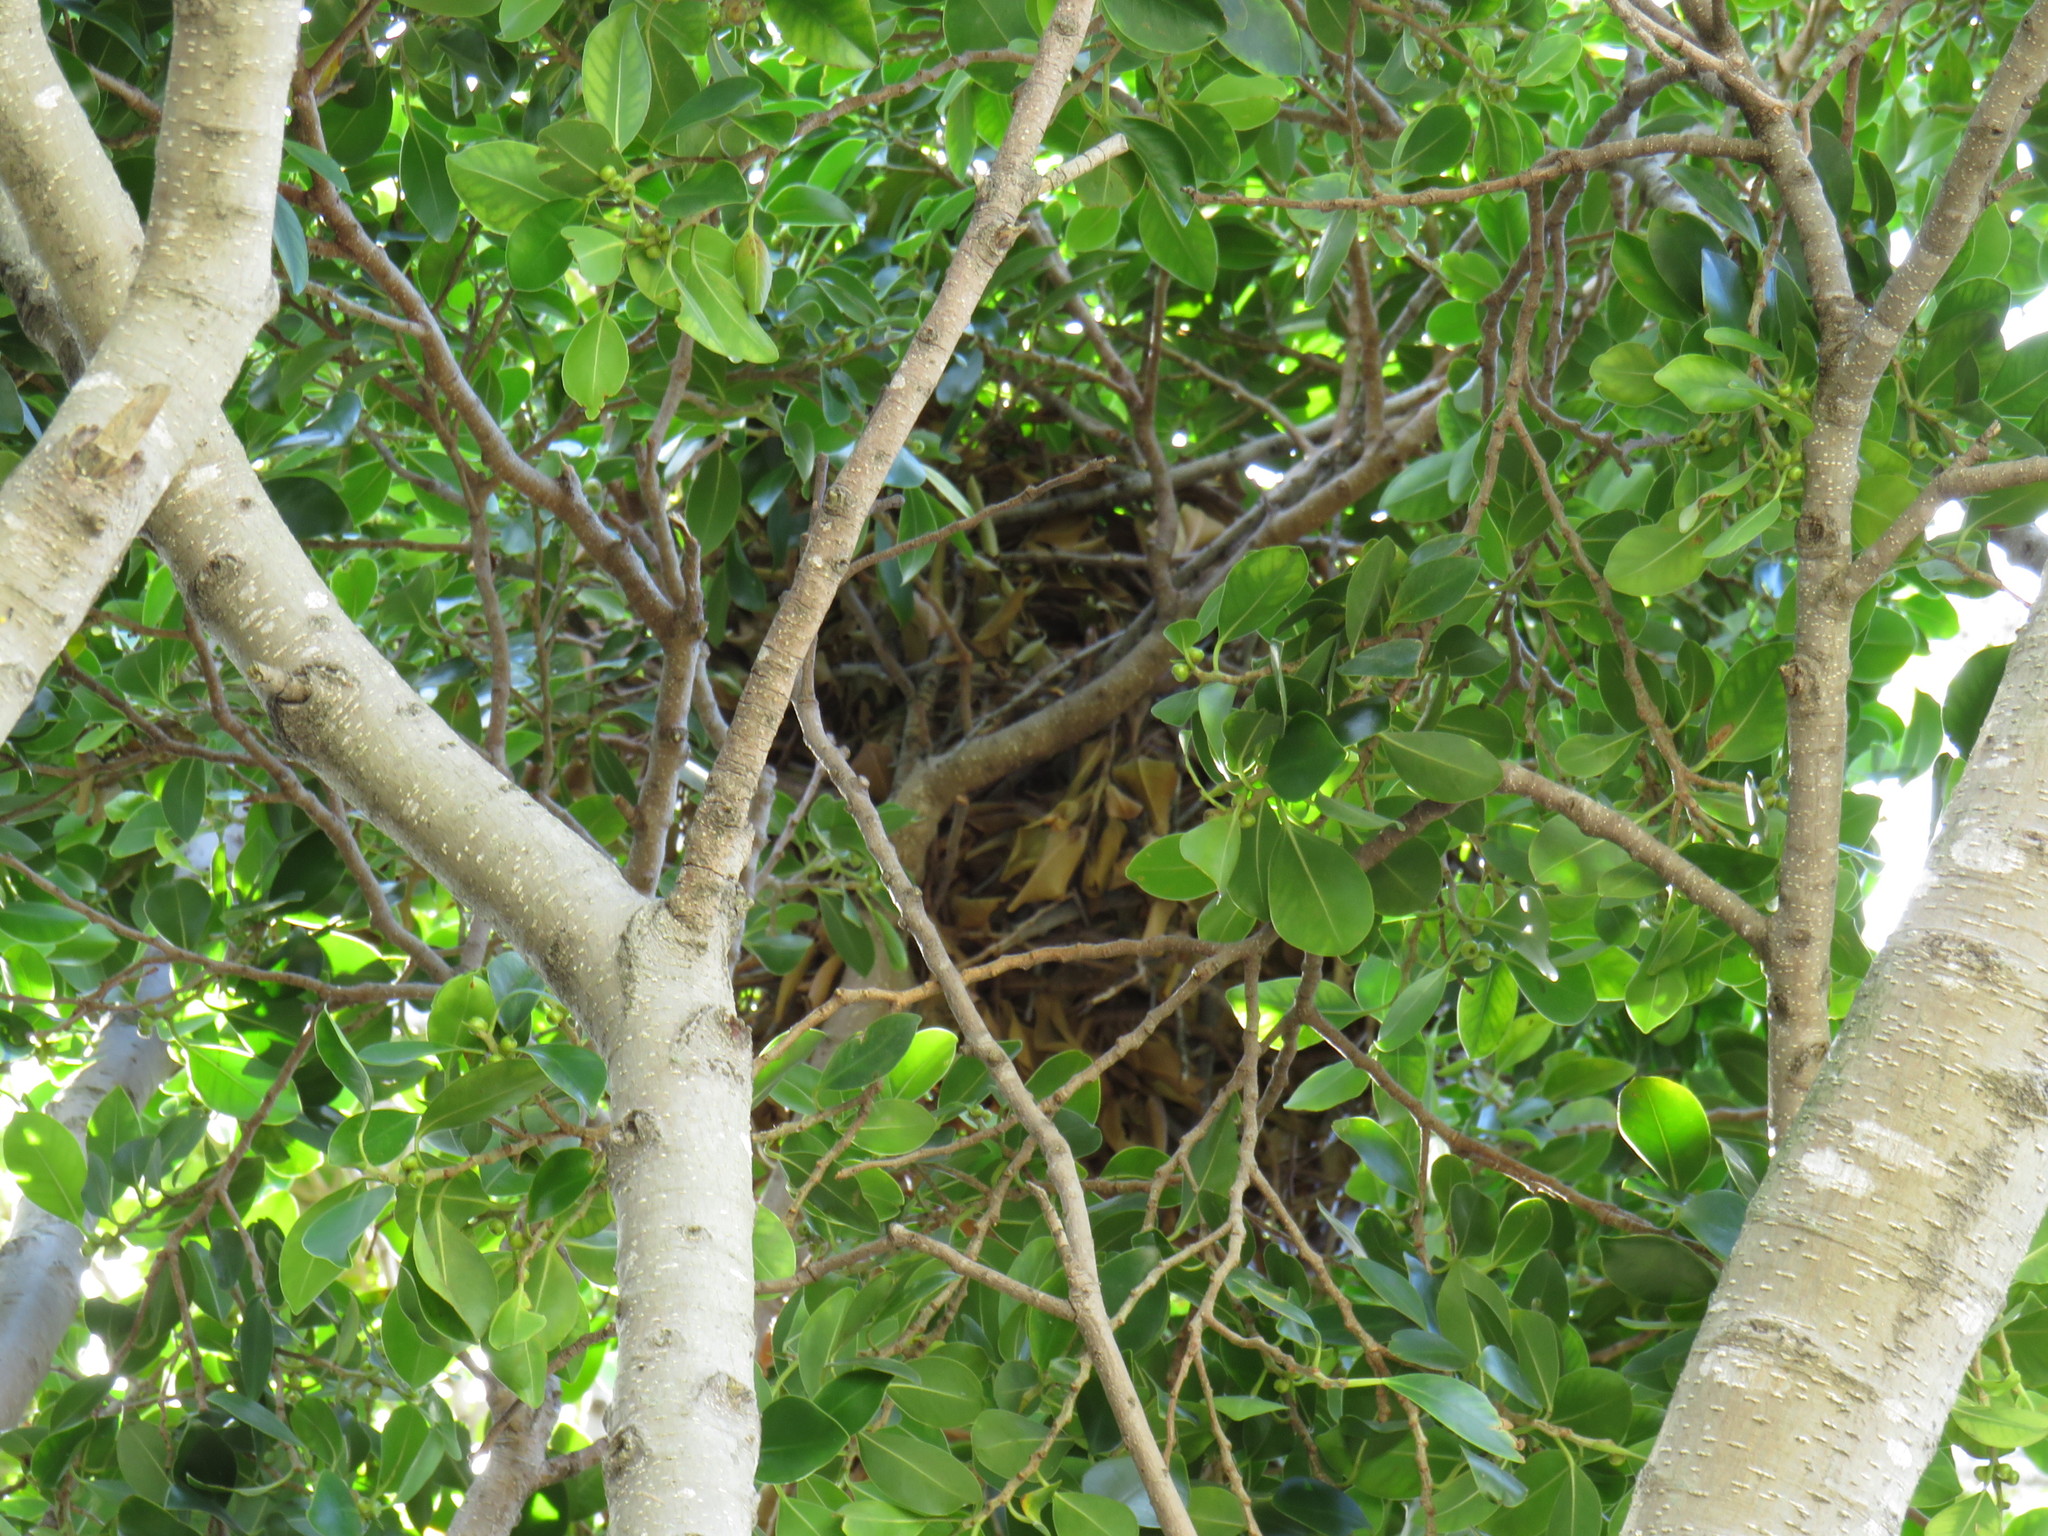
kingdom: Animalia
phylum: Chordata
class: Mammalia
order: Rodentia
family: Sciuridae
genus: Sciurus
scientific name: Sciurus carolinensis
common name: Eastern gray squirrel
